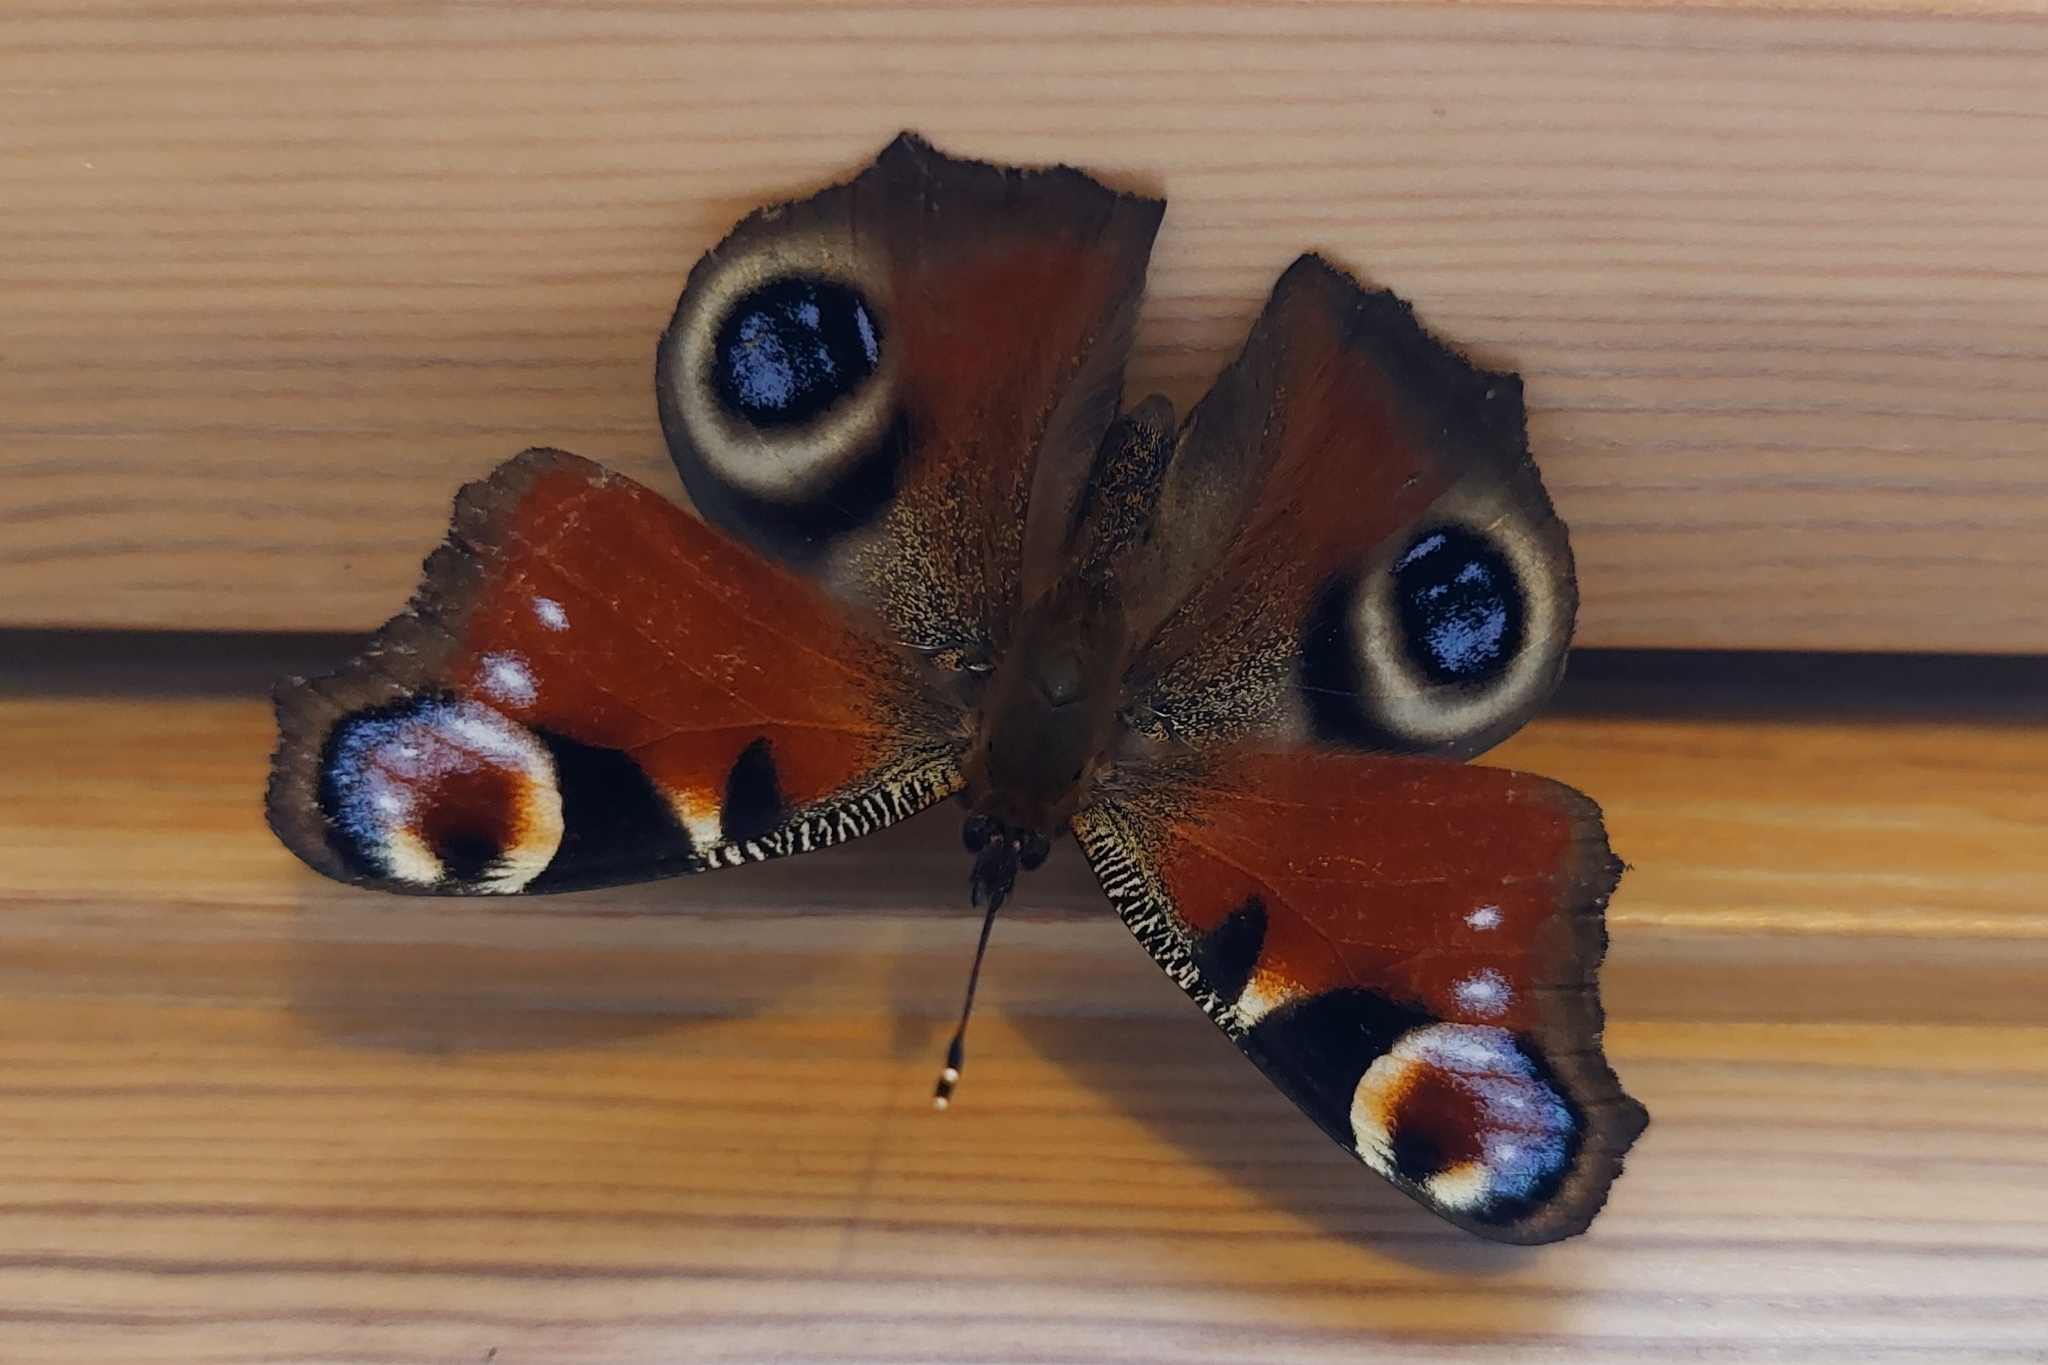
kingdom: Animalia
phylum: Arthropoda
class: Insecta
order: Lepidoptera
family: Nymphalidae
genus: Aglais
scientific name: Aglais io
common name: Peacock
